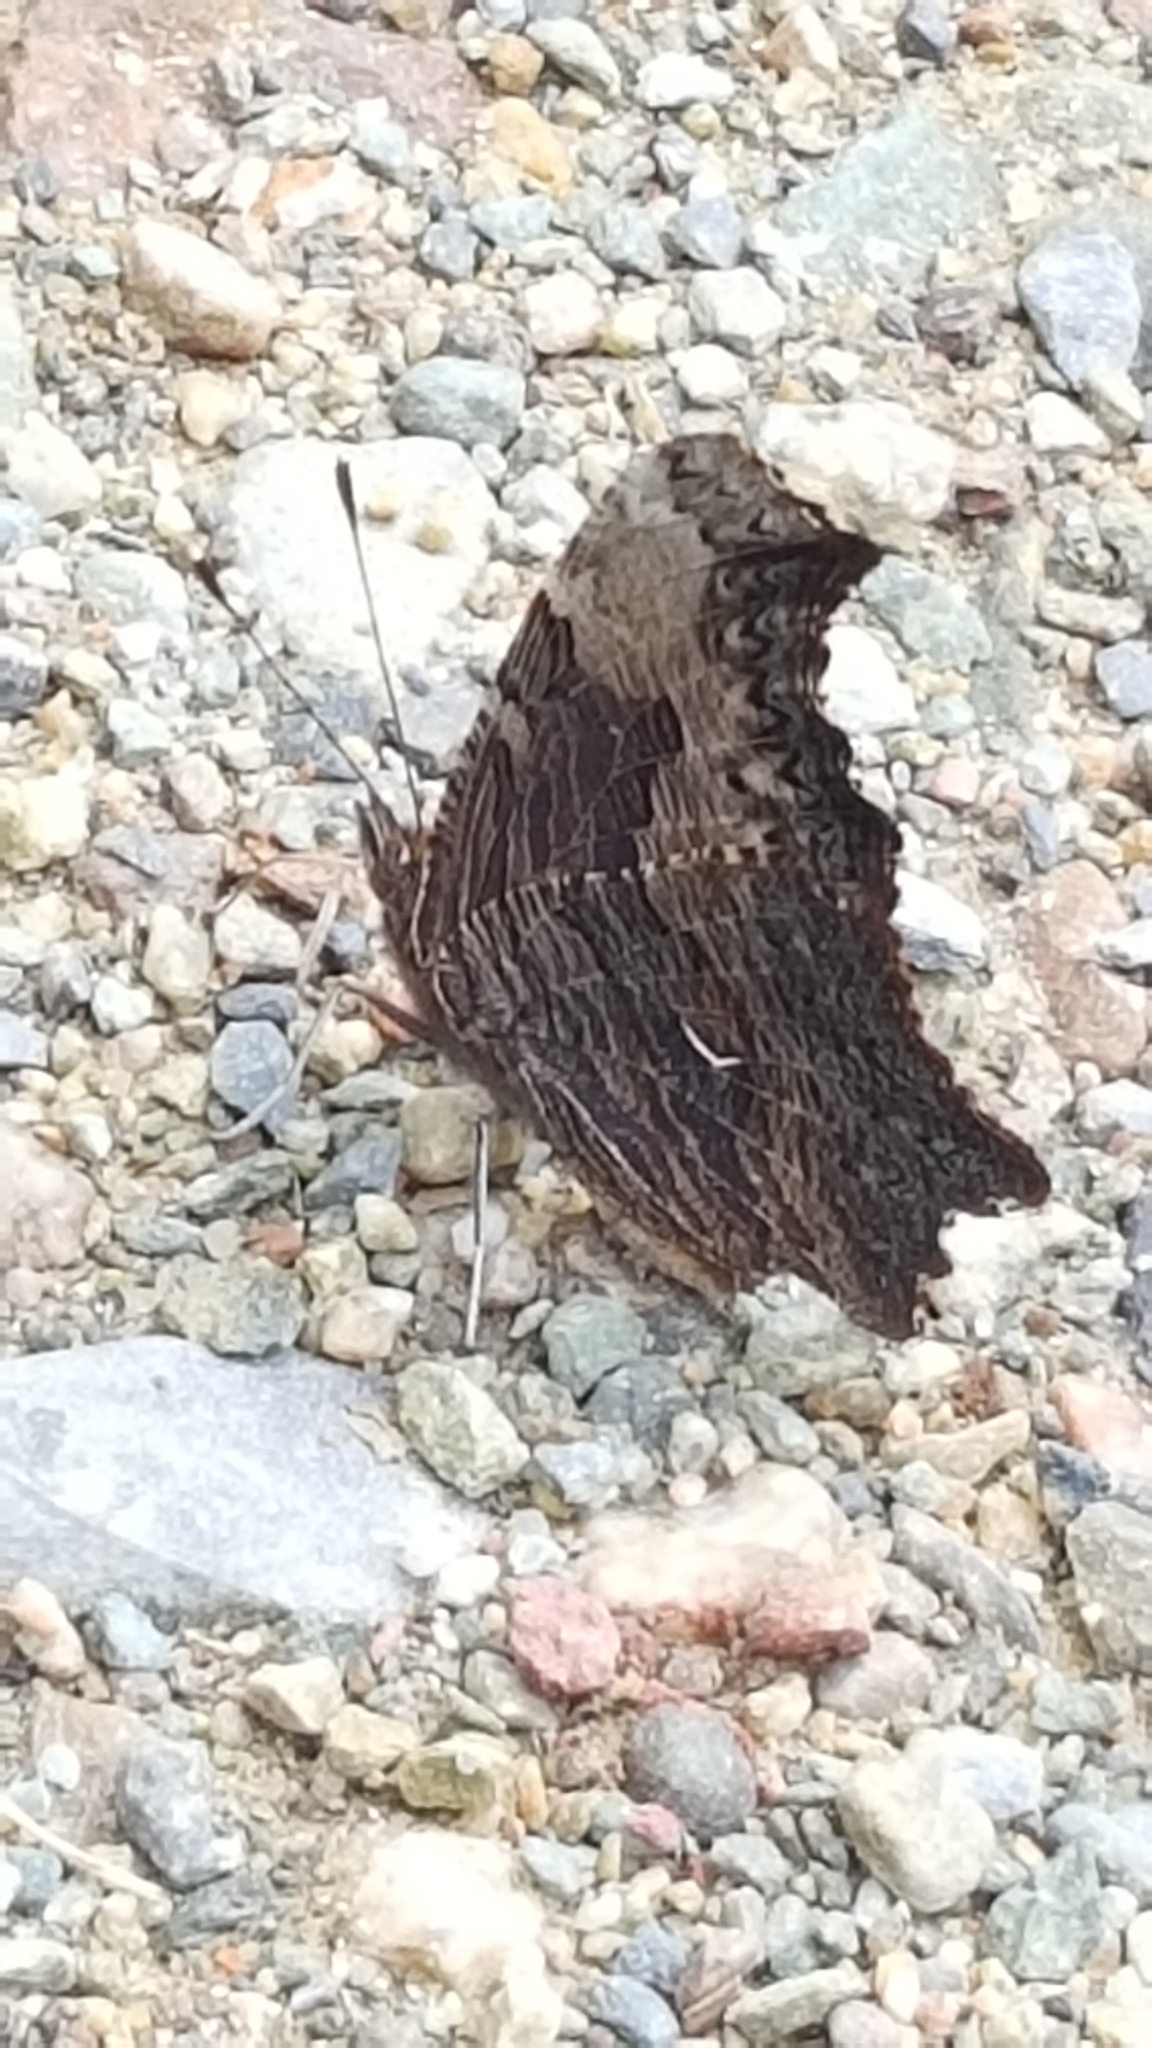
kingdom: Animalia
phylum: Arthropoda
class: Insecta
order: Lepidoptera
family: Nymphalidae
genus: Polygonia
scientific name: Polygonia progne
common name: Gray comma
